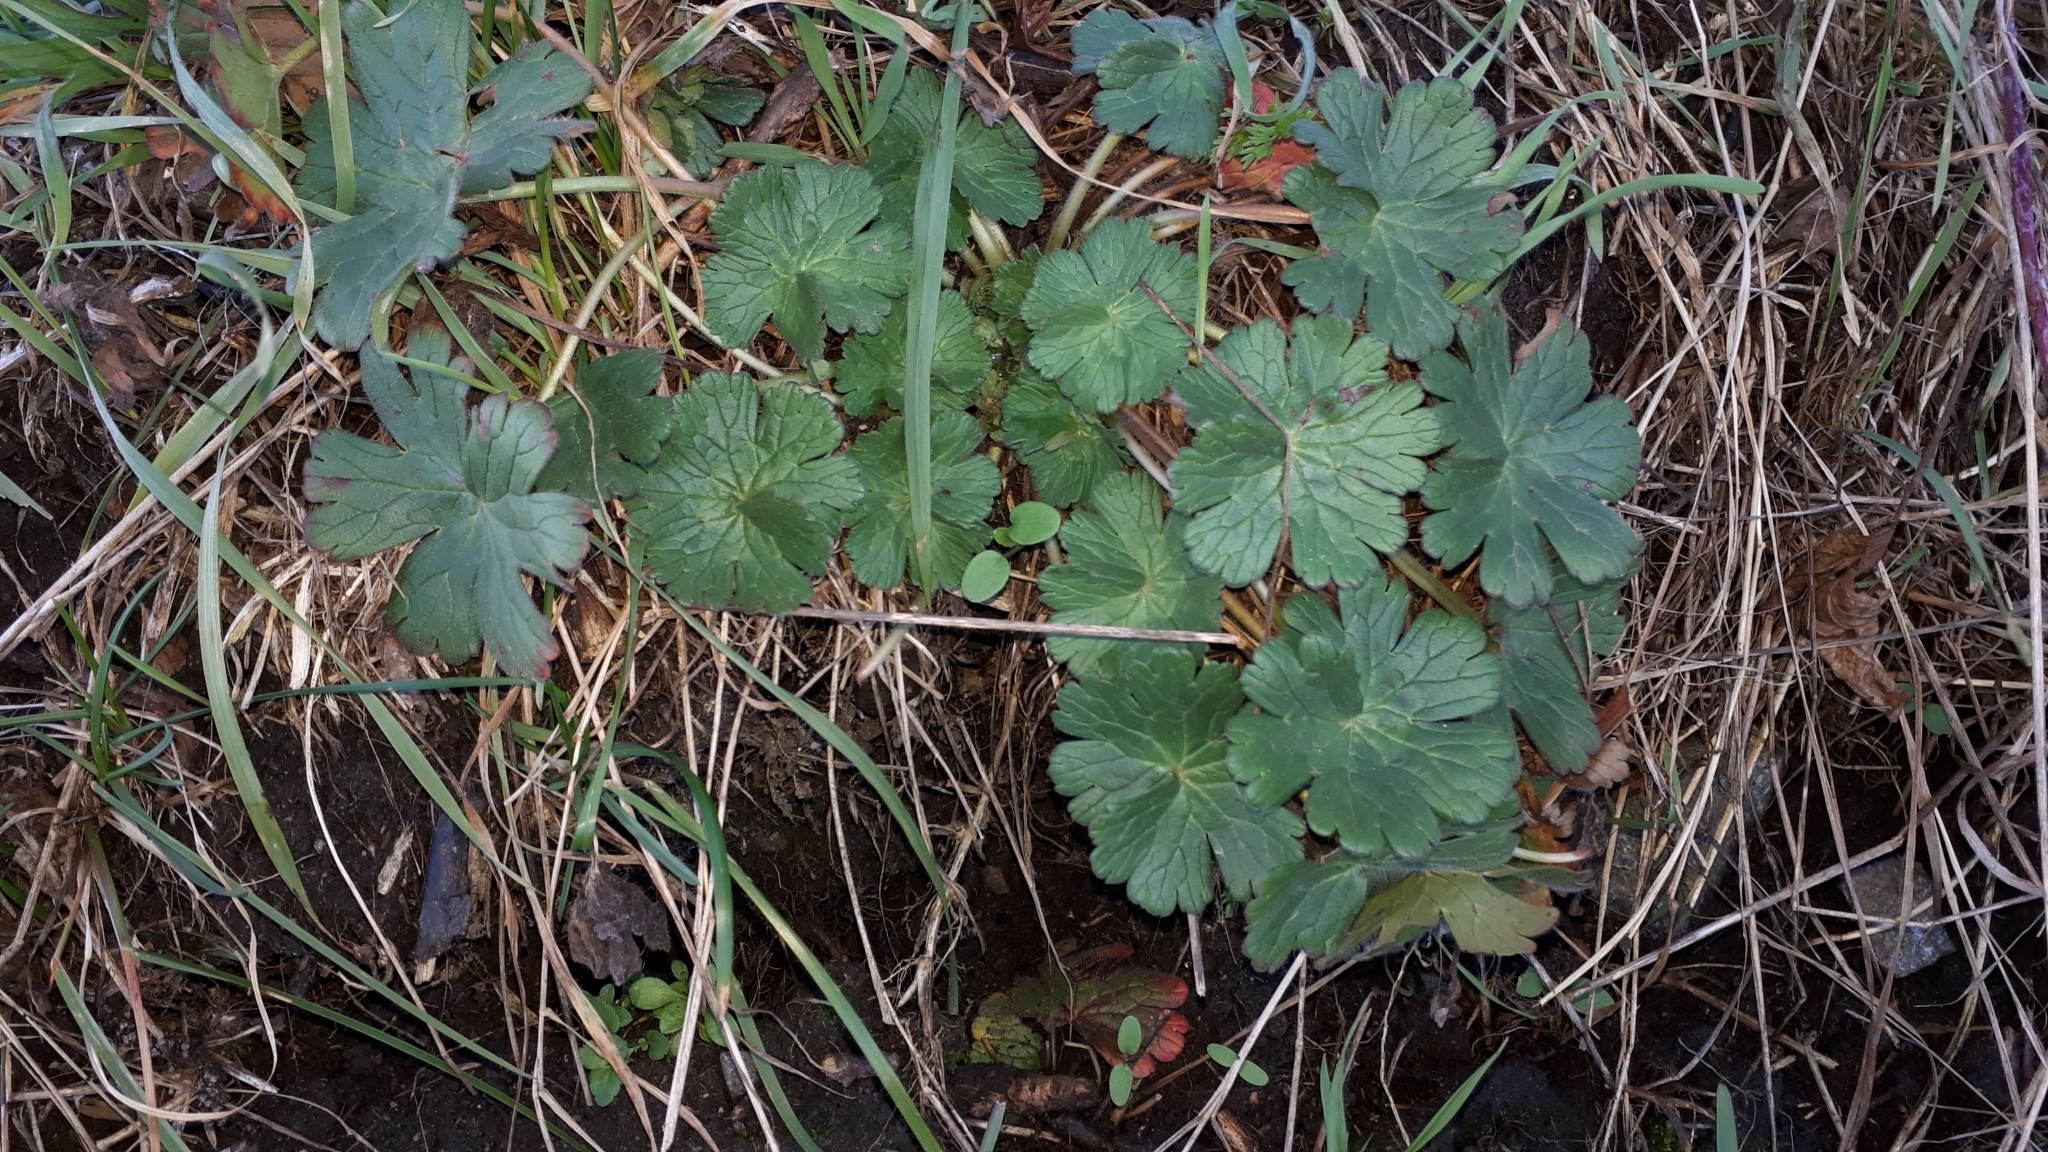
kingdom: Plantae
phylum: Tracheophyta
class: Magnoliopsida
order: Geraniales
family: Geraniaceae
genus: Geranium
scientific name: Geranium pyrenaicum
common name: Hedgerow crane's-bill
